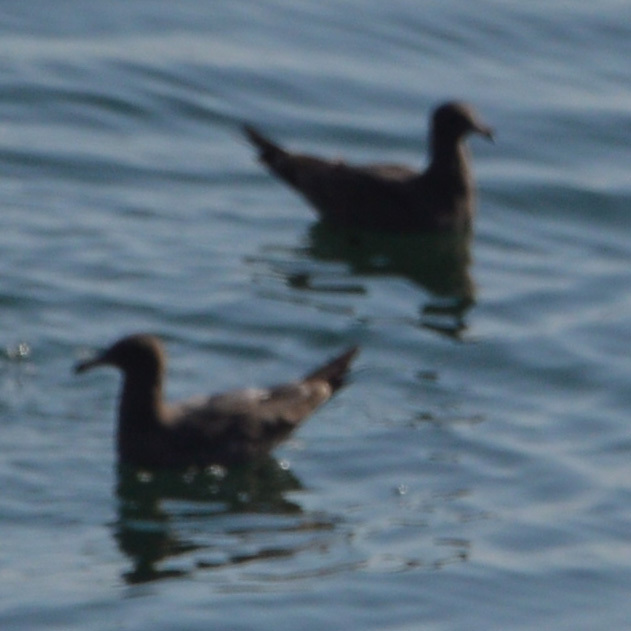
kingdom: Animalia
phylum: Chordata
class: Aves
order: Charadriiformes
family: Laridae
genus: Larus
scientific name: Larus heermanni
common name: Heermann's gull
